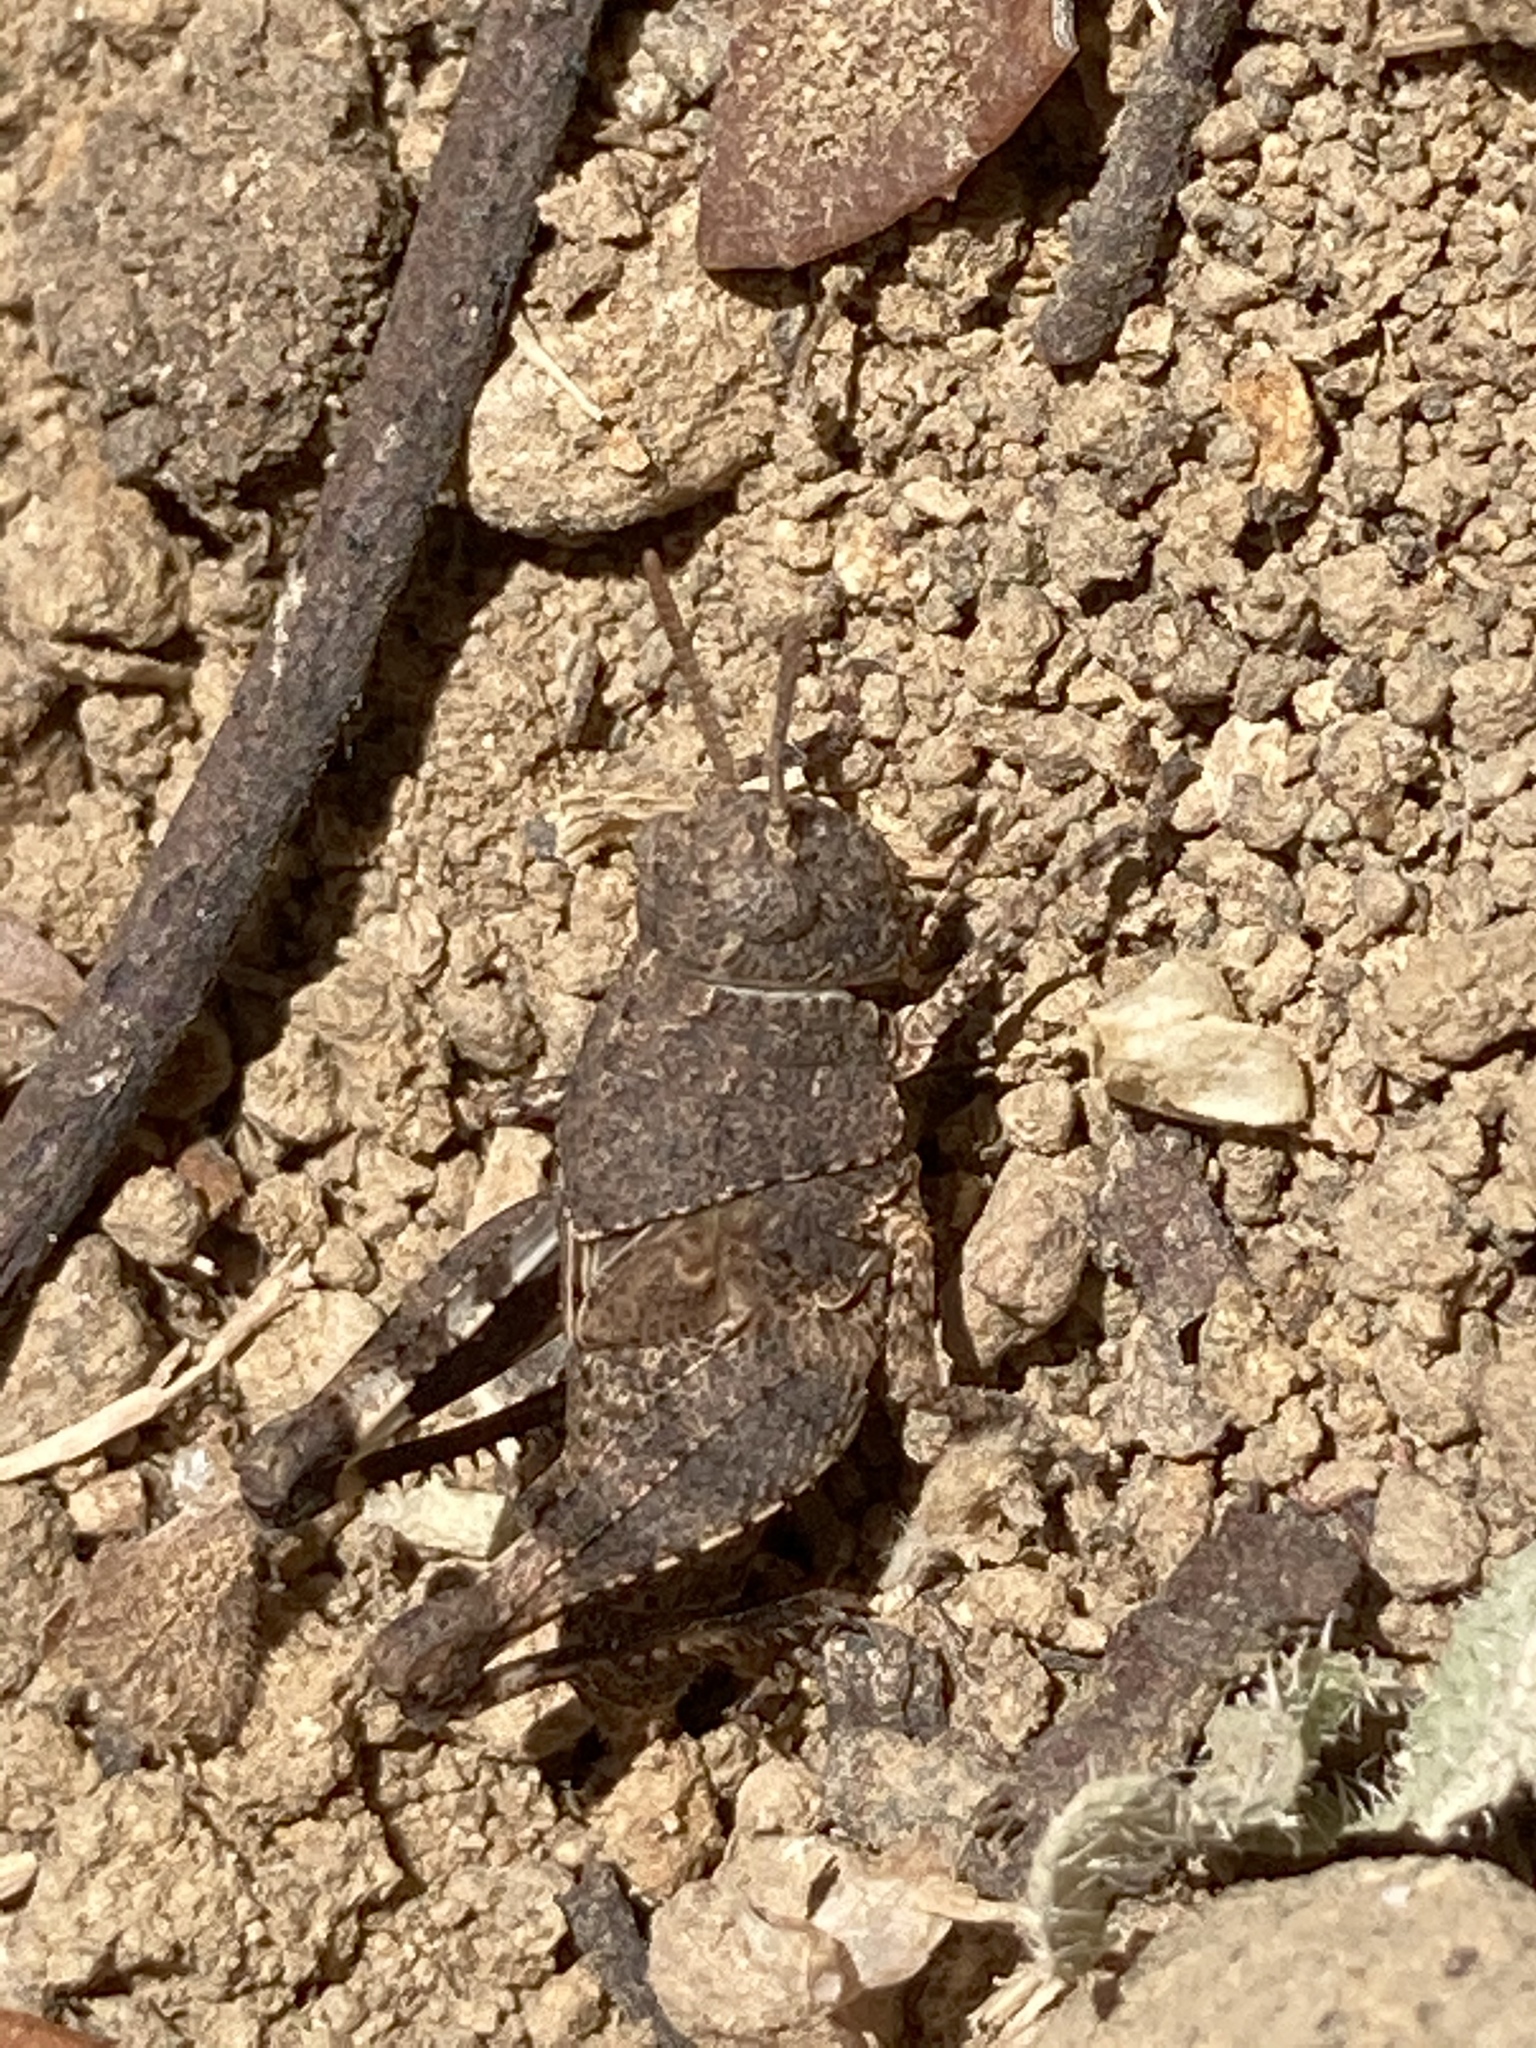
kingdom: Animalia
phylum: Arthropoda
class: Insecta
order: Orthoptera
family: Acrididae
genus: Oedipoda
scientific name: Oedipoda
